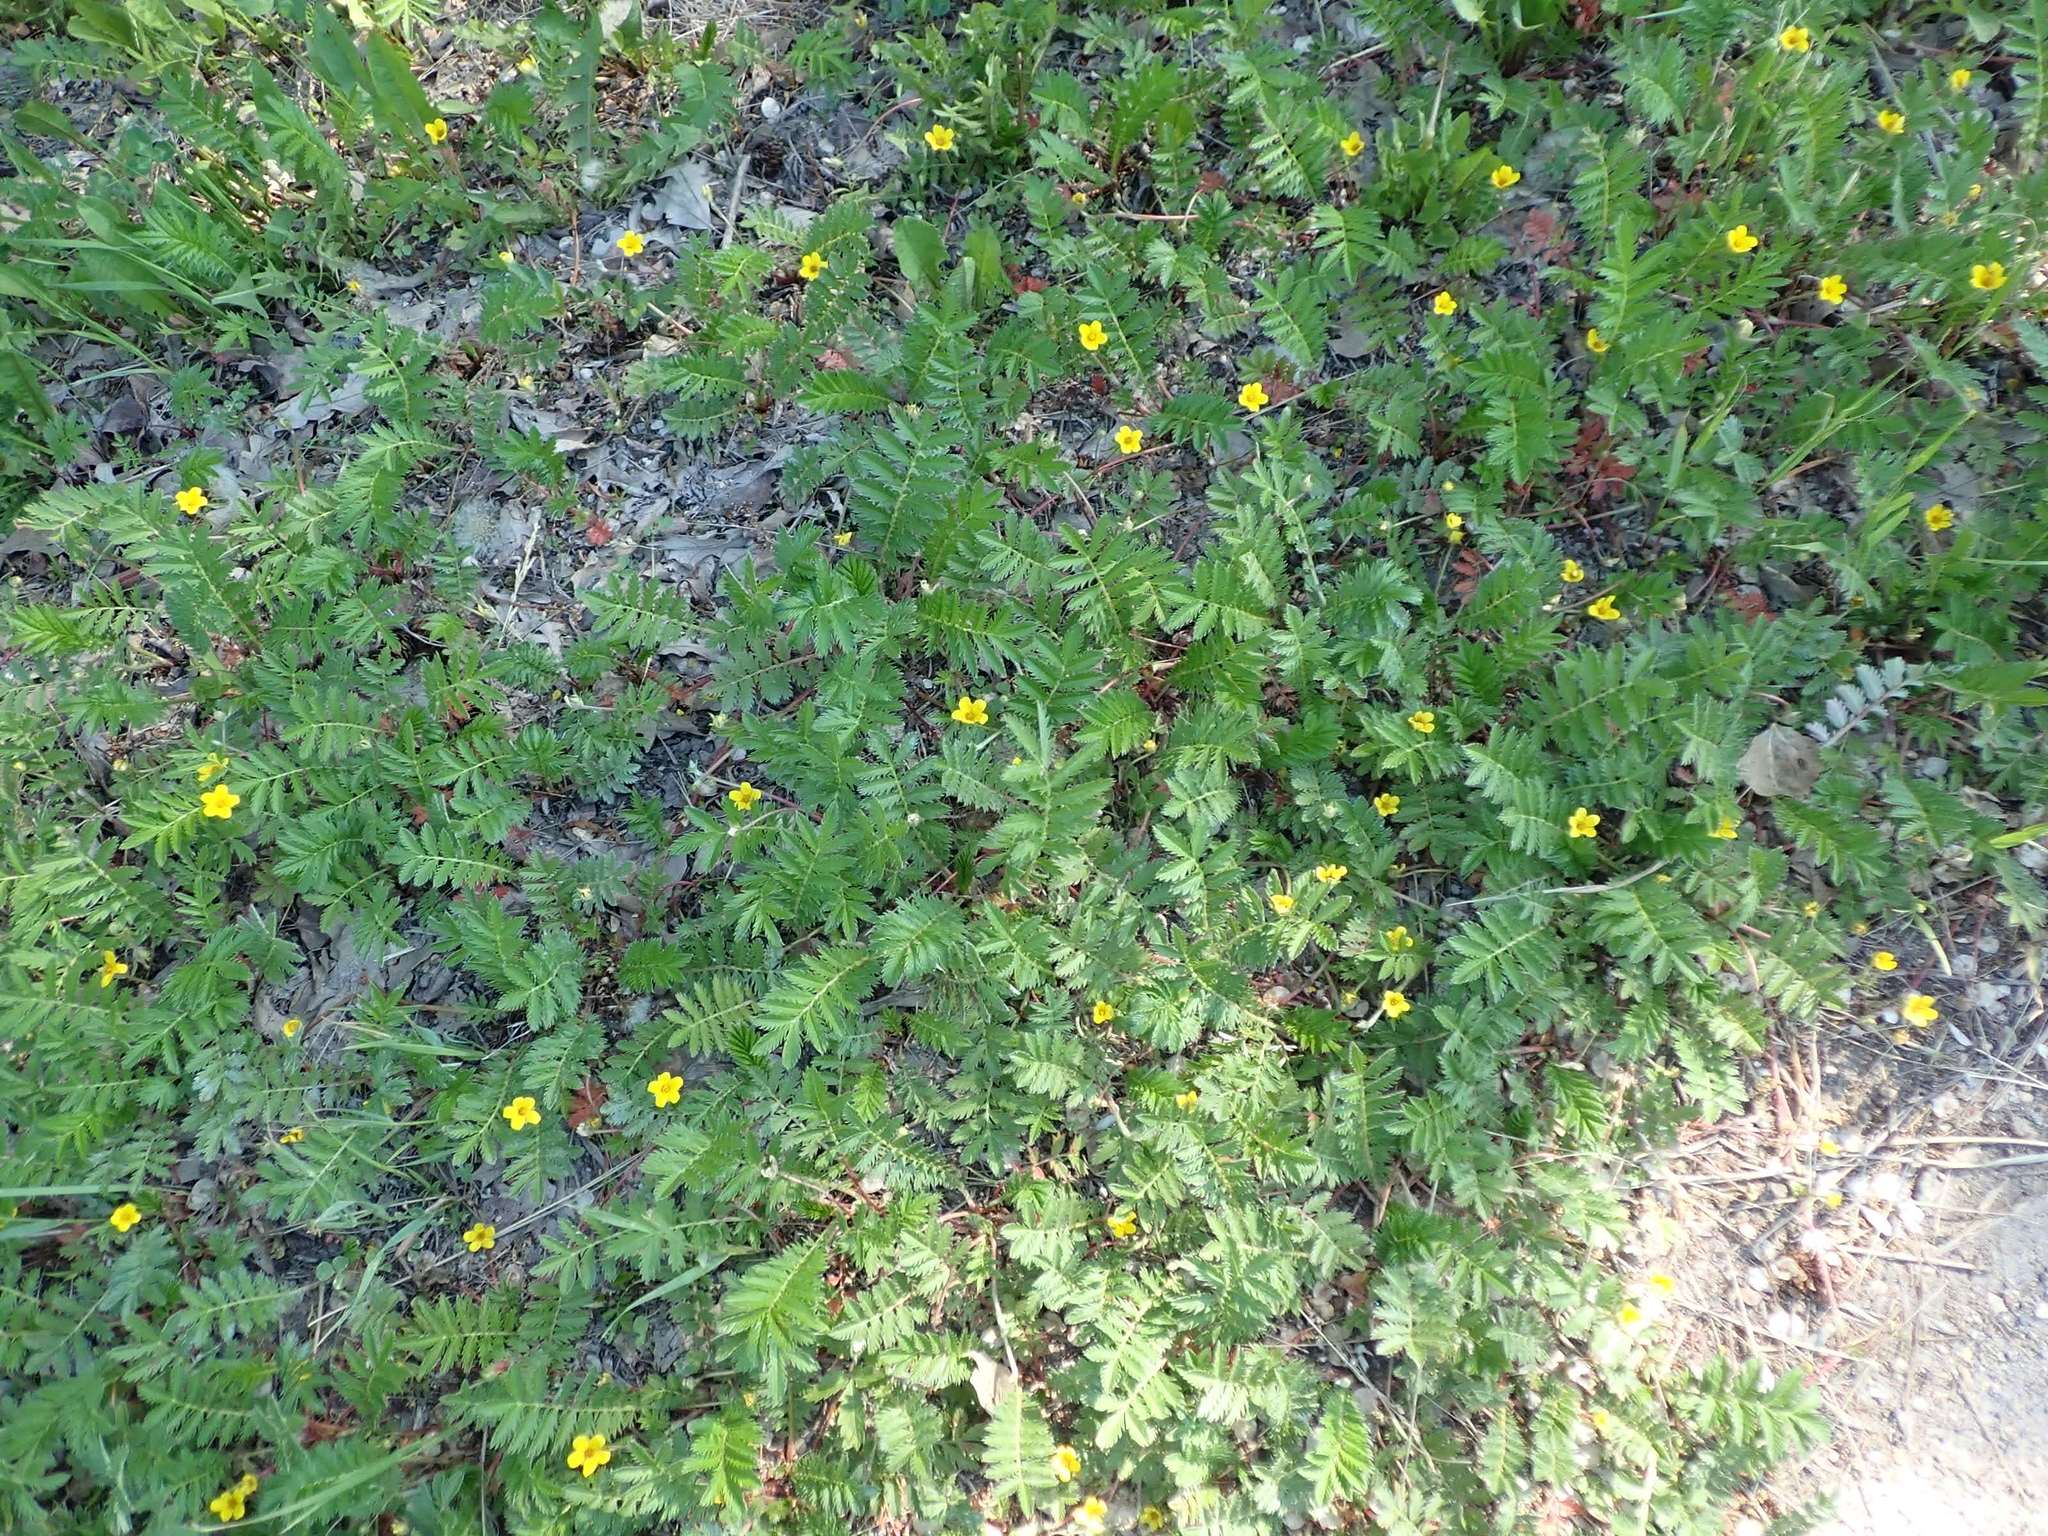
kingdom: Plantae
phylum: Tracheophyta
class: Magnoliopsida
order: Rosales
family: Rosaceae
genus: Argentina
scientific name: Argentina anserina
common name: Common silverweed
